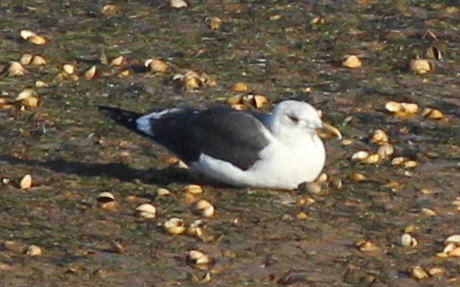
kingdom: Animalia
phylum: Chordata
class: Aves
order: Charadriiformes
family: Laridae
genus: Larus
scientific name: Larus fuscus
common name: Lesser black-backed gull
